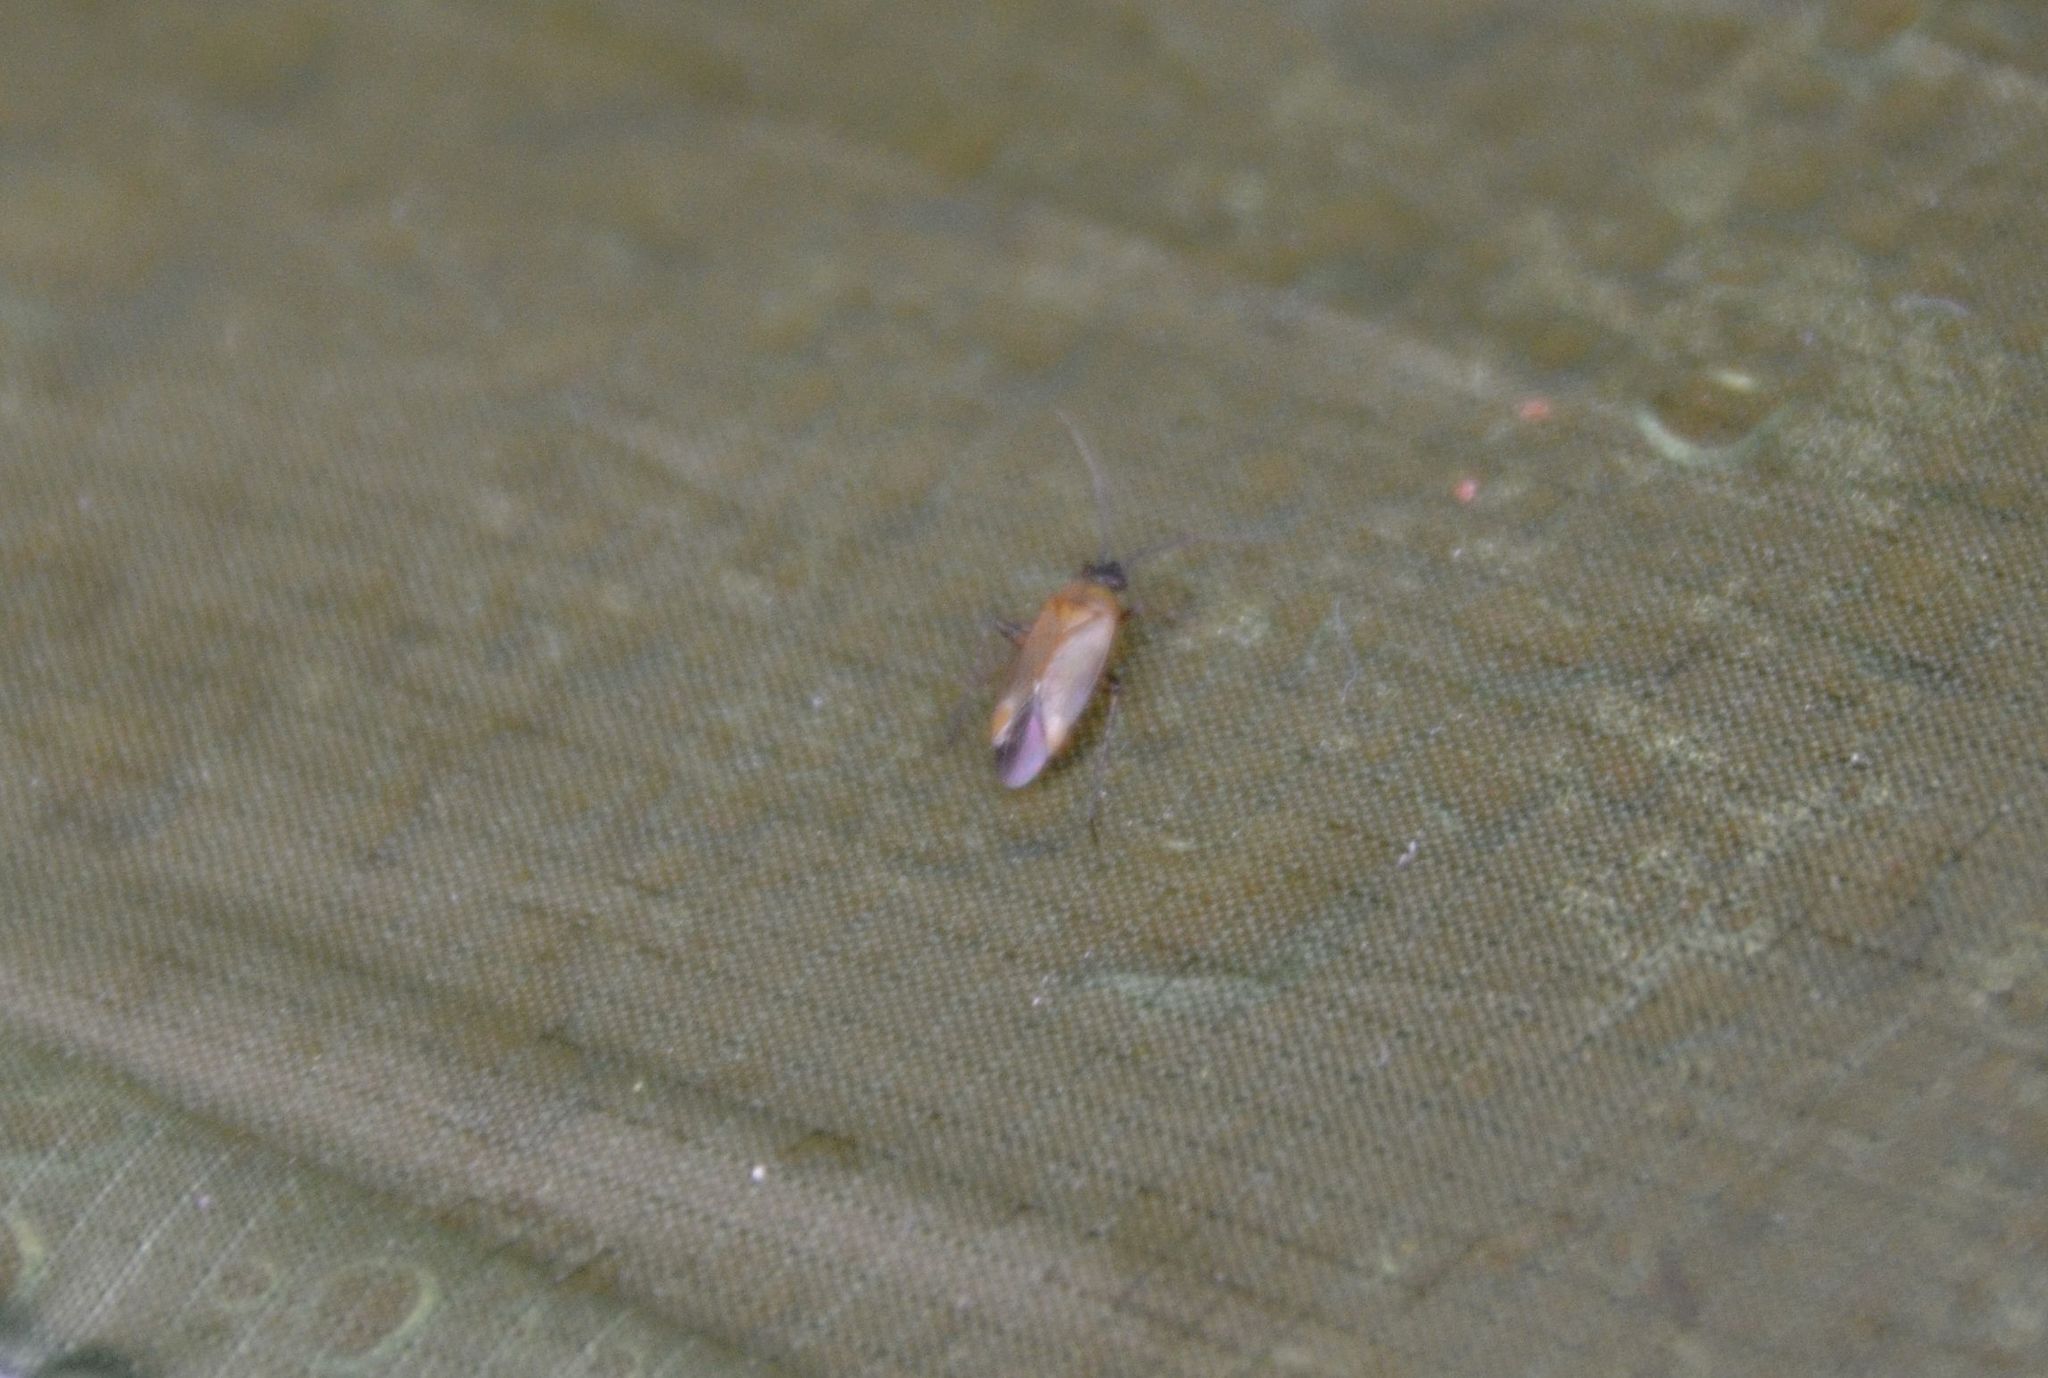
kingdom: Animalia
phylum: Arthropoda
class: Insecta
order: Hemiptera
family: Miridae
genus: Plagiognathus
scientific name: Plagiognathus arbustorum
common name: Plant bug
